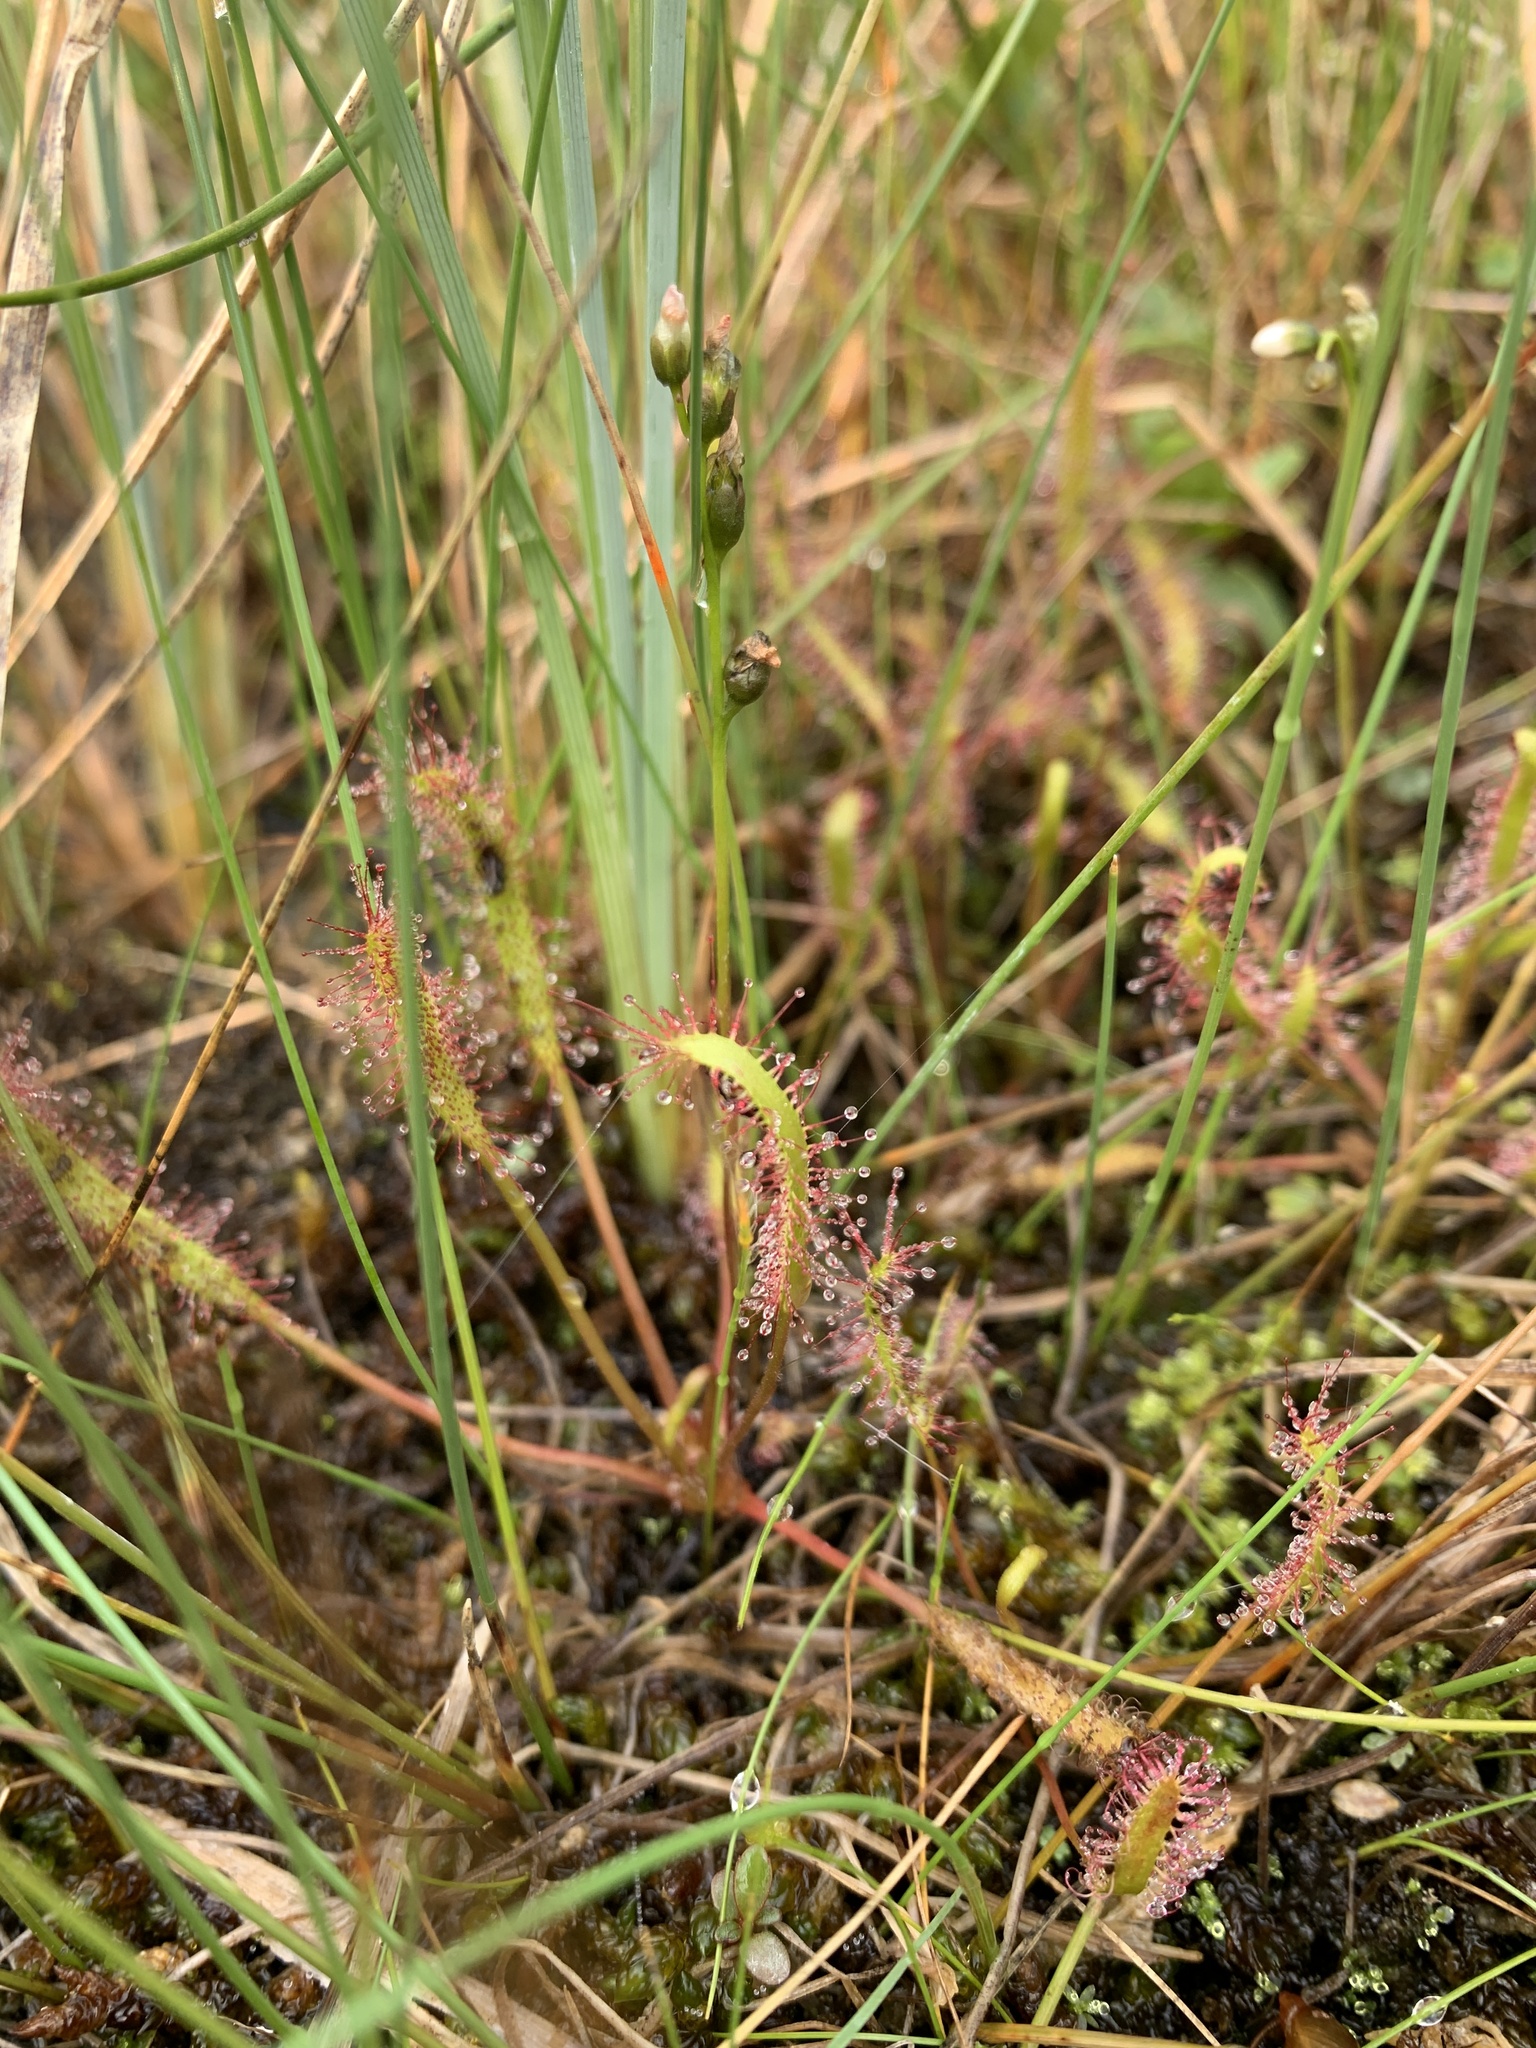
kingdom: Plantae
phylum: Tracheophyta
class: Magnoliopsida
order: Caryophyllales
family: Droseraceae
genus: Drosera
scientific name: Drosera linearis
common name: Linear-leaved sundew
